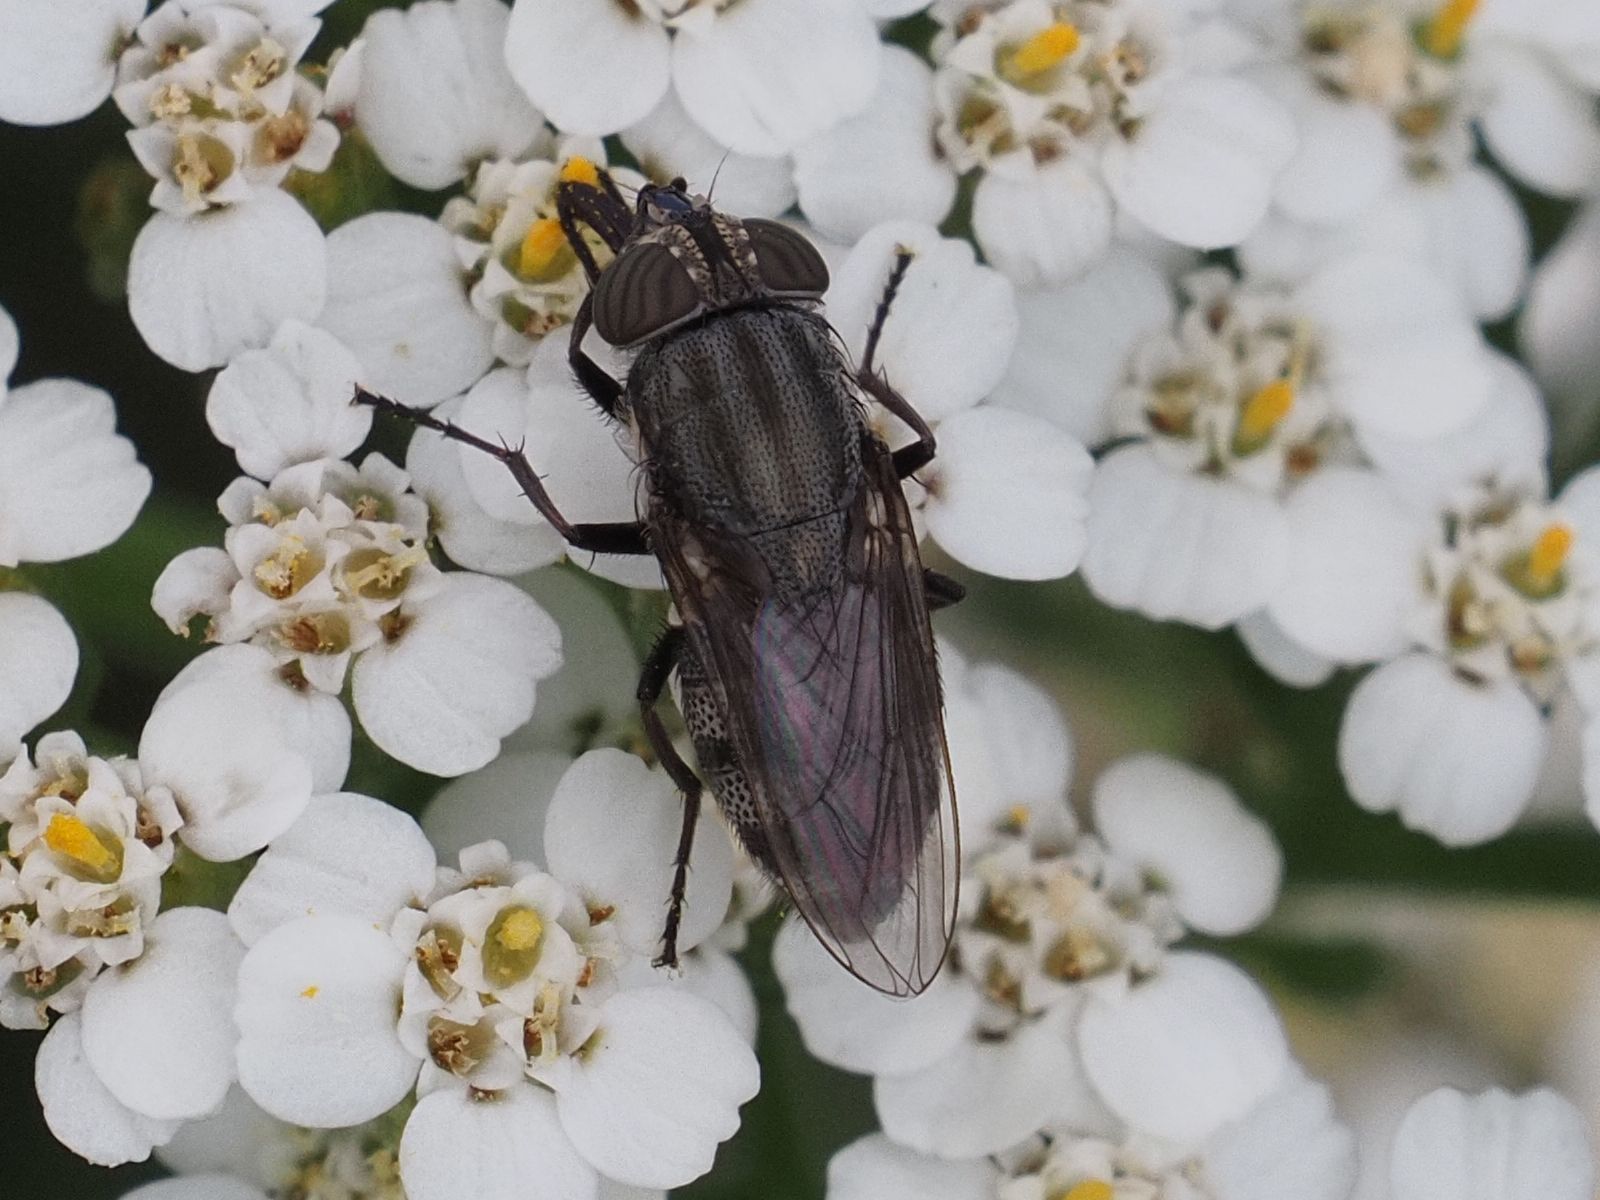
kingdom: Animalia
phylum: Arthropoda
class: Insecta
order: Diptera
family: Calliphoridae
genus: Stomorhina
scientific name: Stomorhina lunata
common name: Locust blowfly
